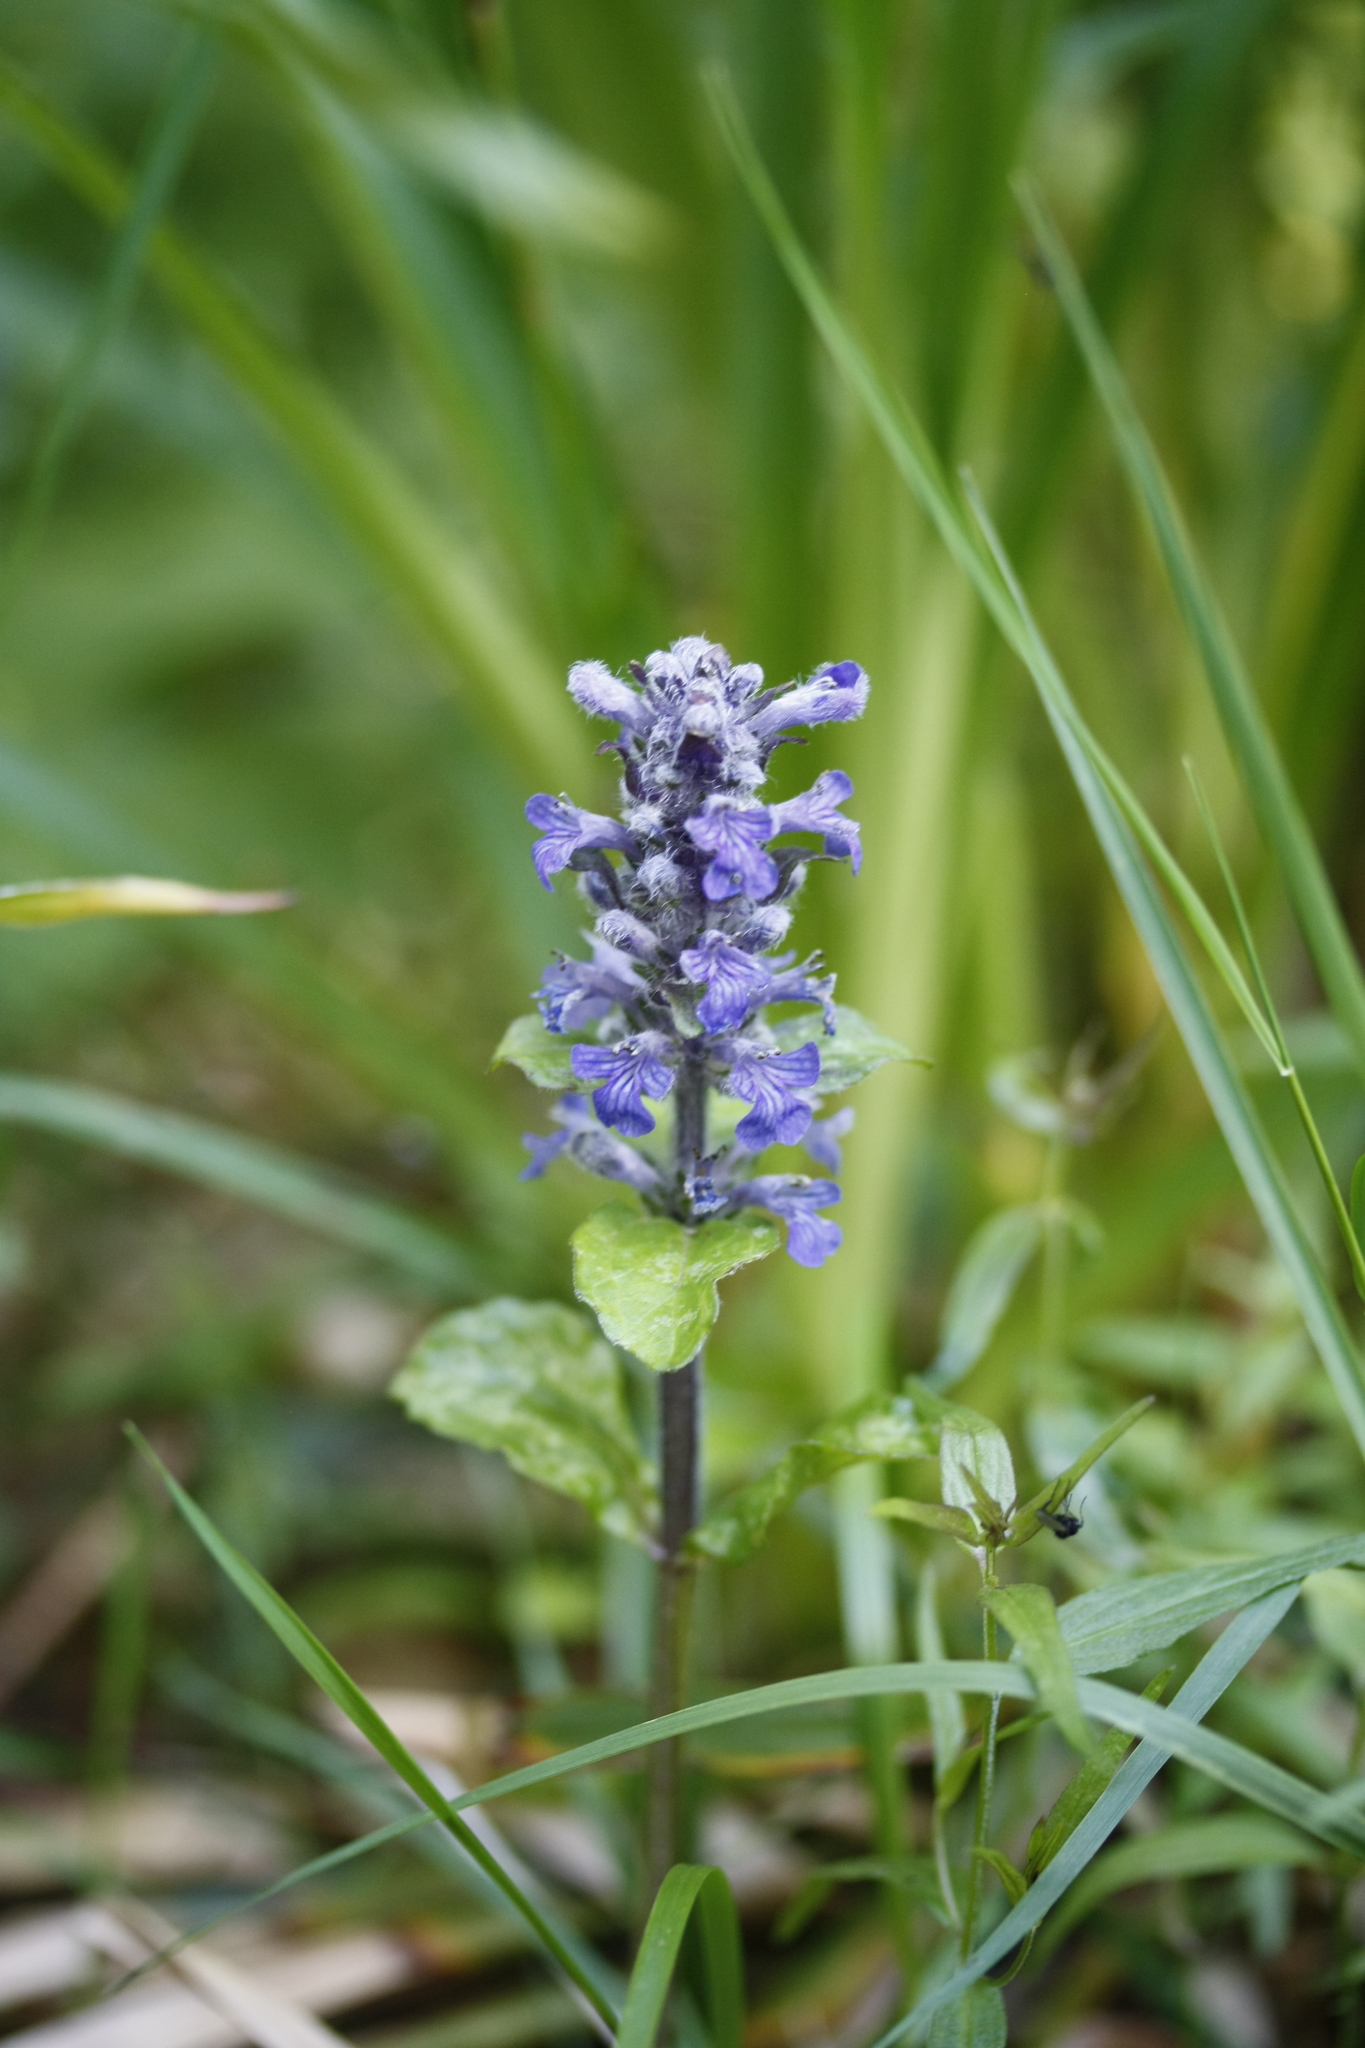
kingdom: Plantae
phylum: Tracheophyta
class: Magnoliopsida
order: Lamiales
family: Lamiaceae
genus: Ajuga
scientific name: Ajuga reptans
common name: Bugle
